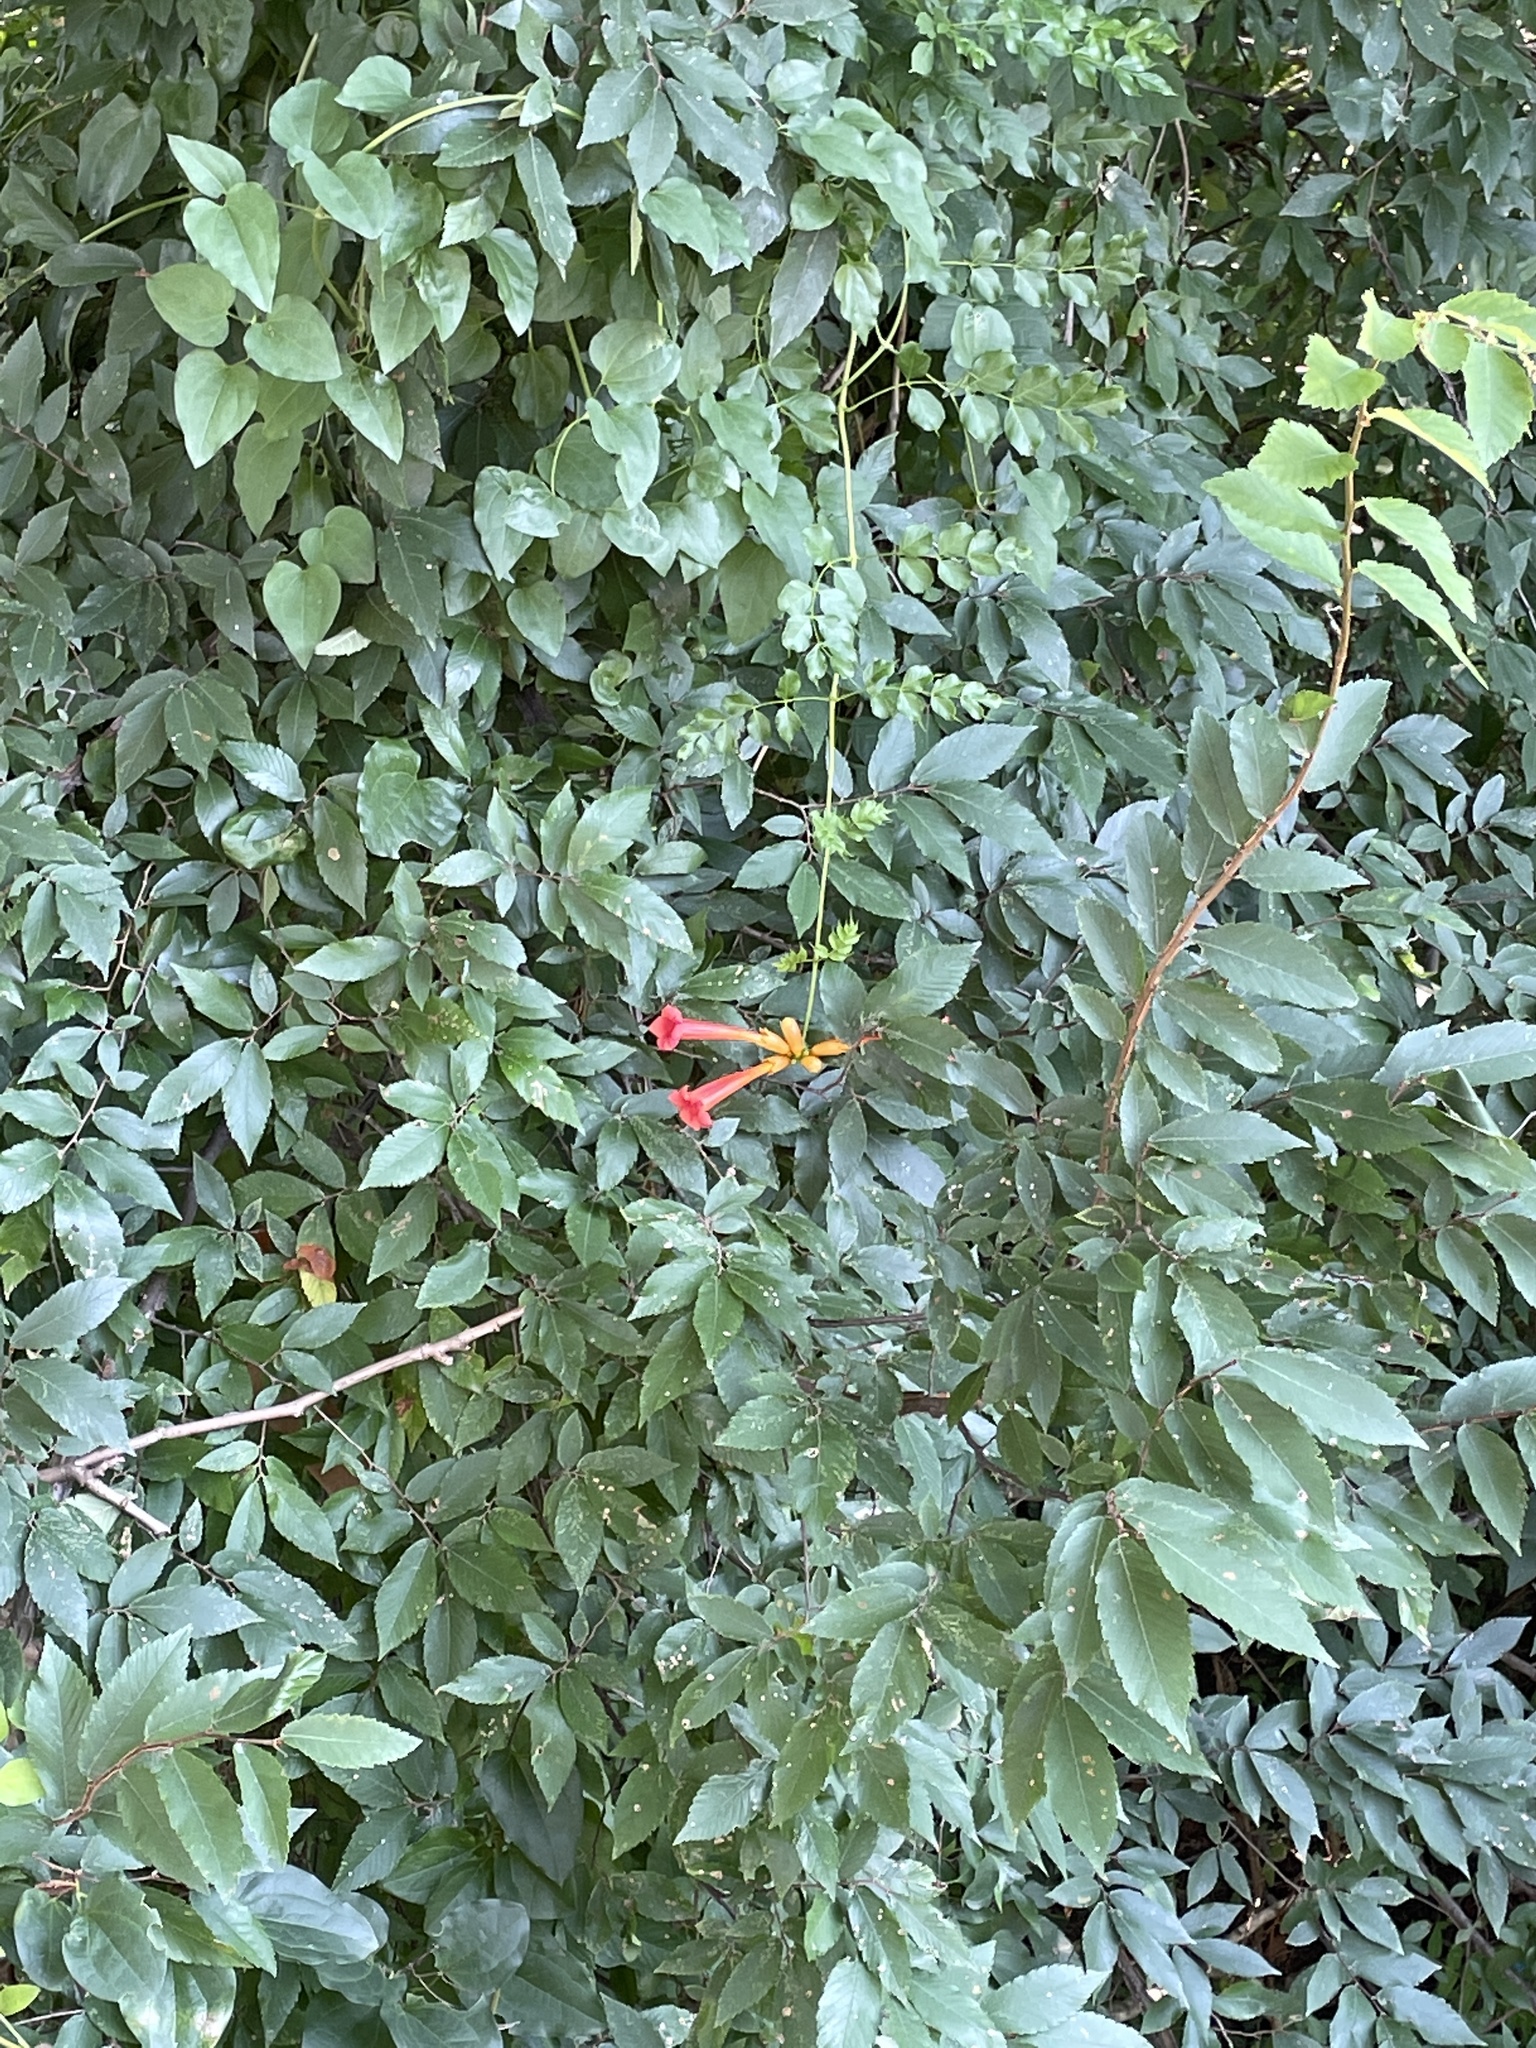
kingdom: Plantae
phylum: Tracheophyta
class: Magnoliopsida
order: Lamiales
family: Bignoniaceae
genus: Campsis
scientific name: Campsis radicans
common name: Trumpet-creeper
